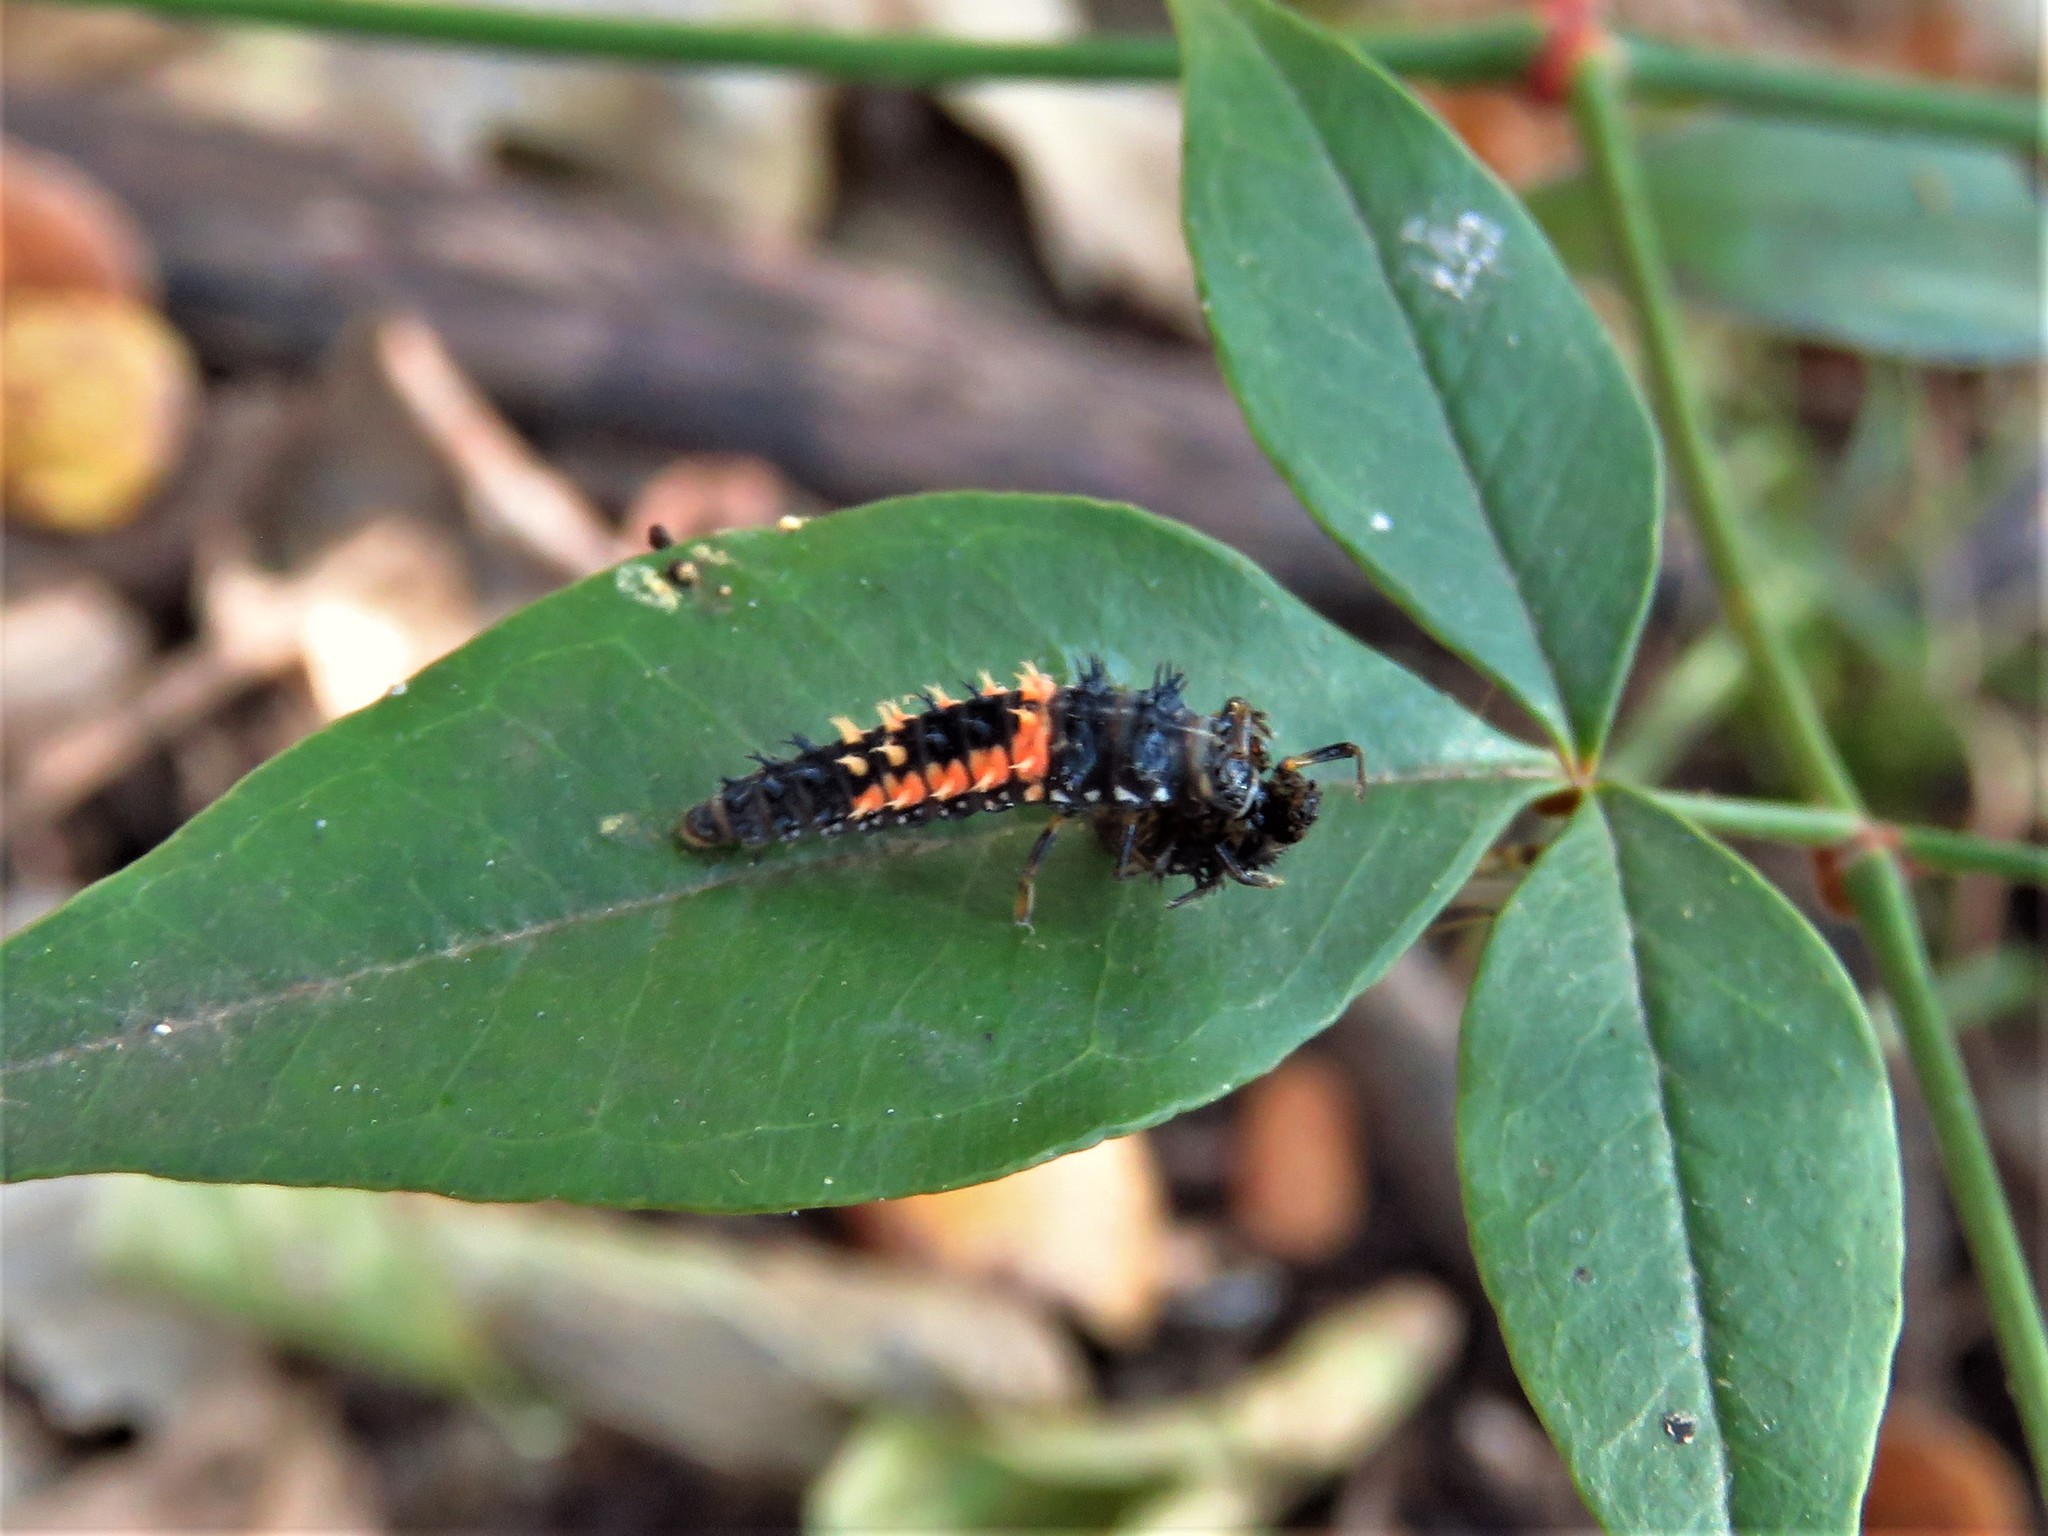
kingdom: Animalia
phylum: Arthropoda
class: Insecta
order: Coleoptera
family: Coccinellidae
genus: Harmonia
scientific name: Harmonia axyridis
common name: Harlequin ladybird
